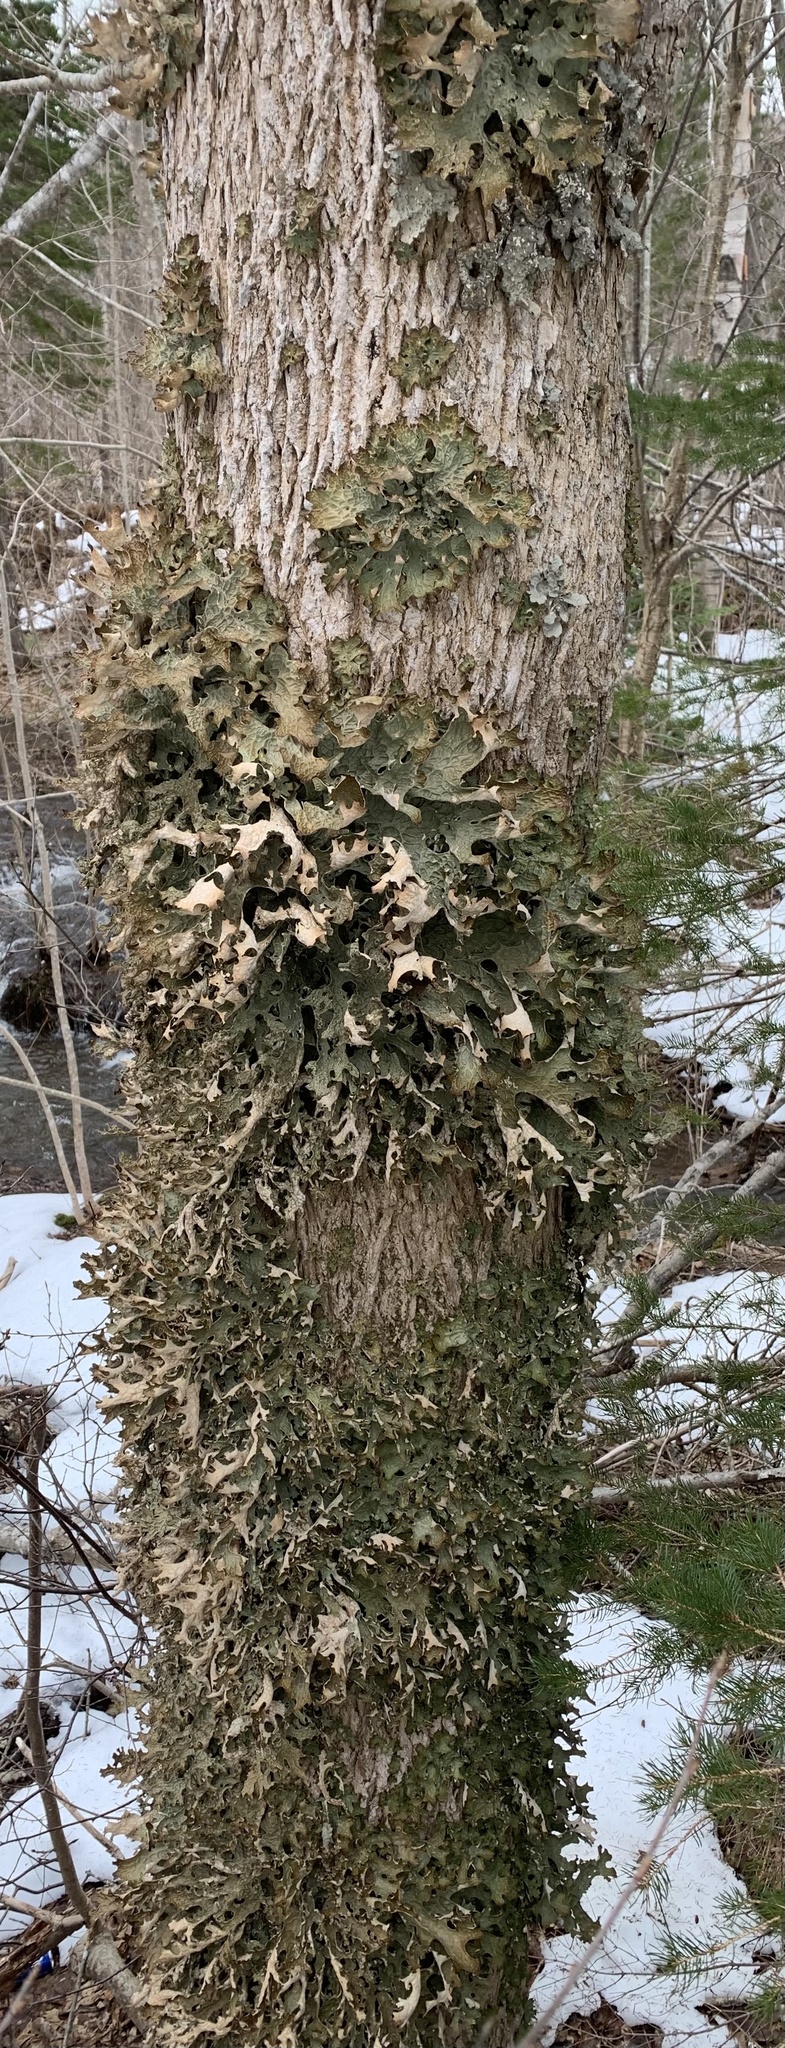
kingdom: Fungi
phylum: Ascomycota
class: Lecanoromycetes
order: Peltigerales
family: Lobariaceae
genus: Lobaria
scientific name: Lobaria pulmonaria
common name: Lungwort
